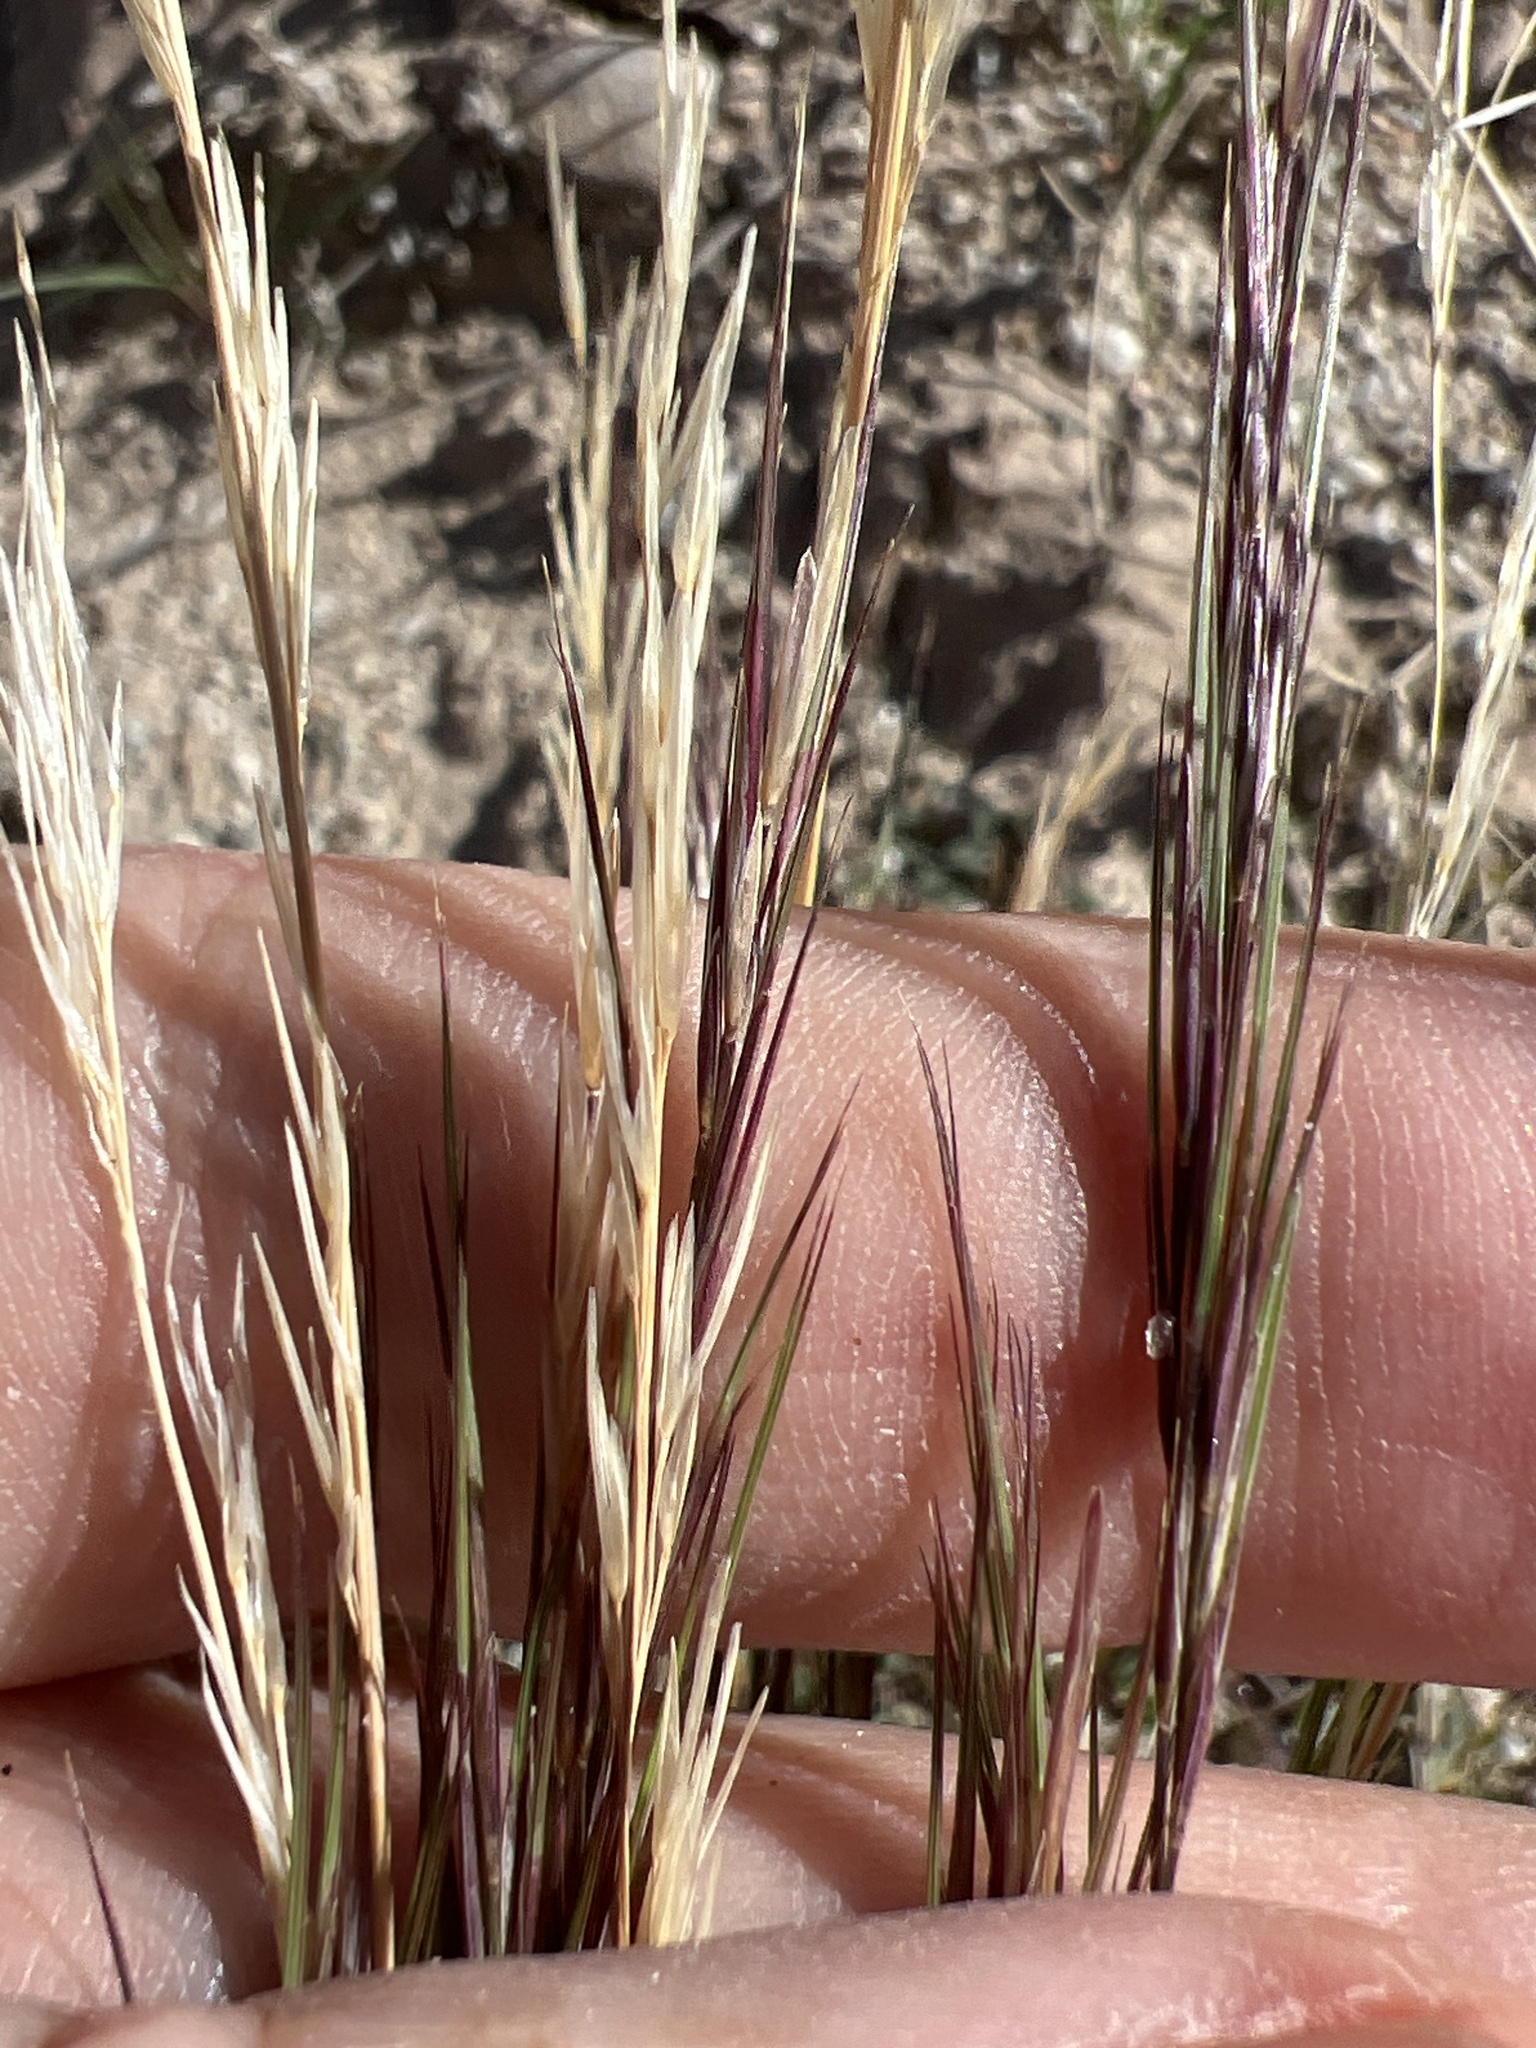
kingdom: Plantae
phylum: Tracheophyta
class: Liliopsida
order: Poales
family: Poaceae
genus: Aristida
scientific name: Aristida adscensionis
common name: Sixweeks threeawn
